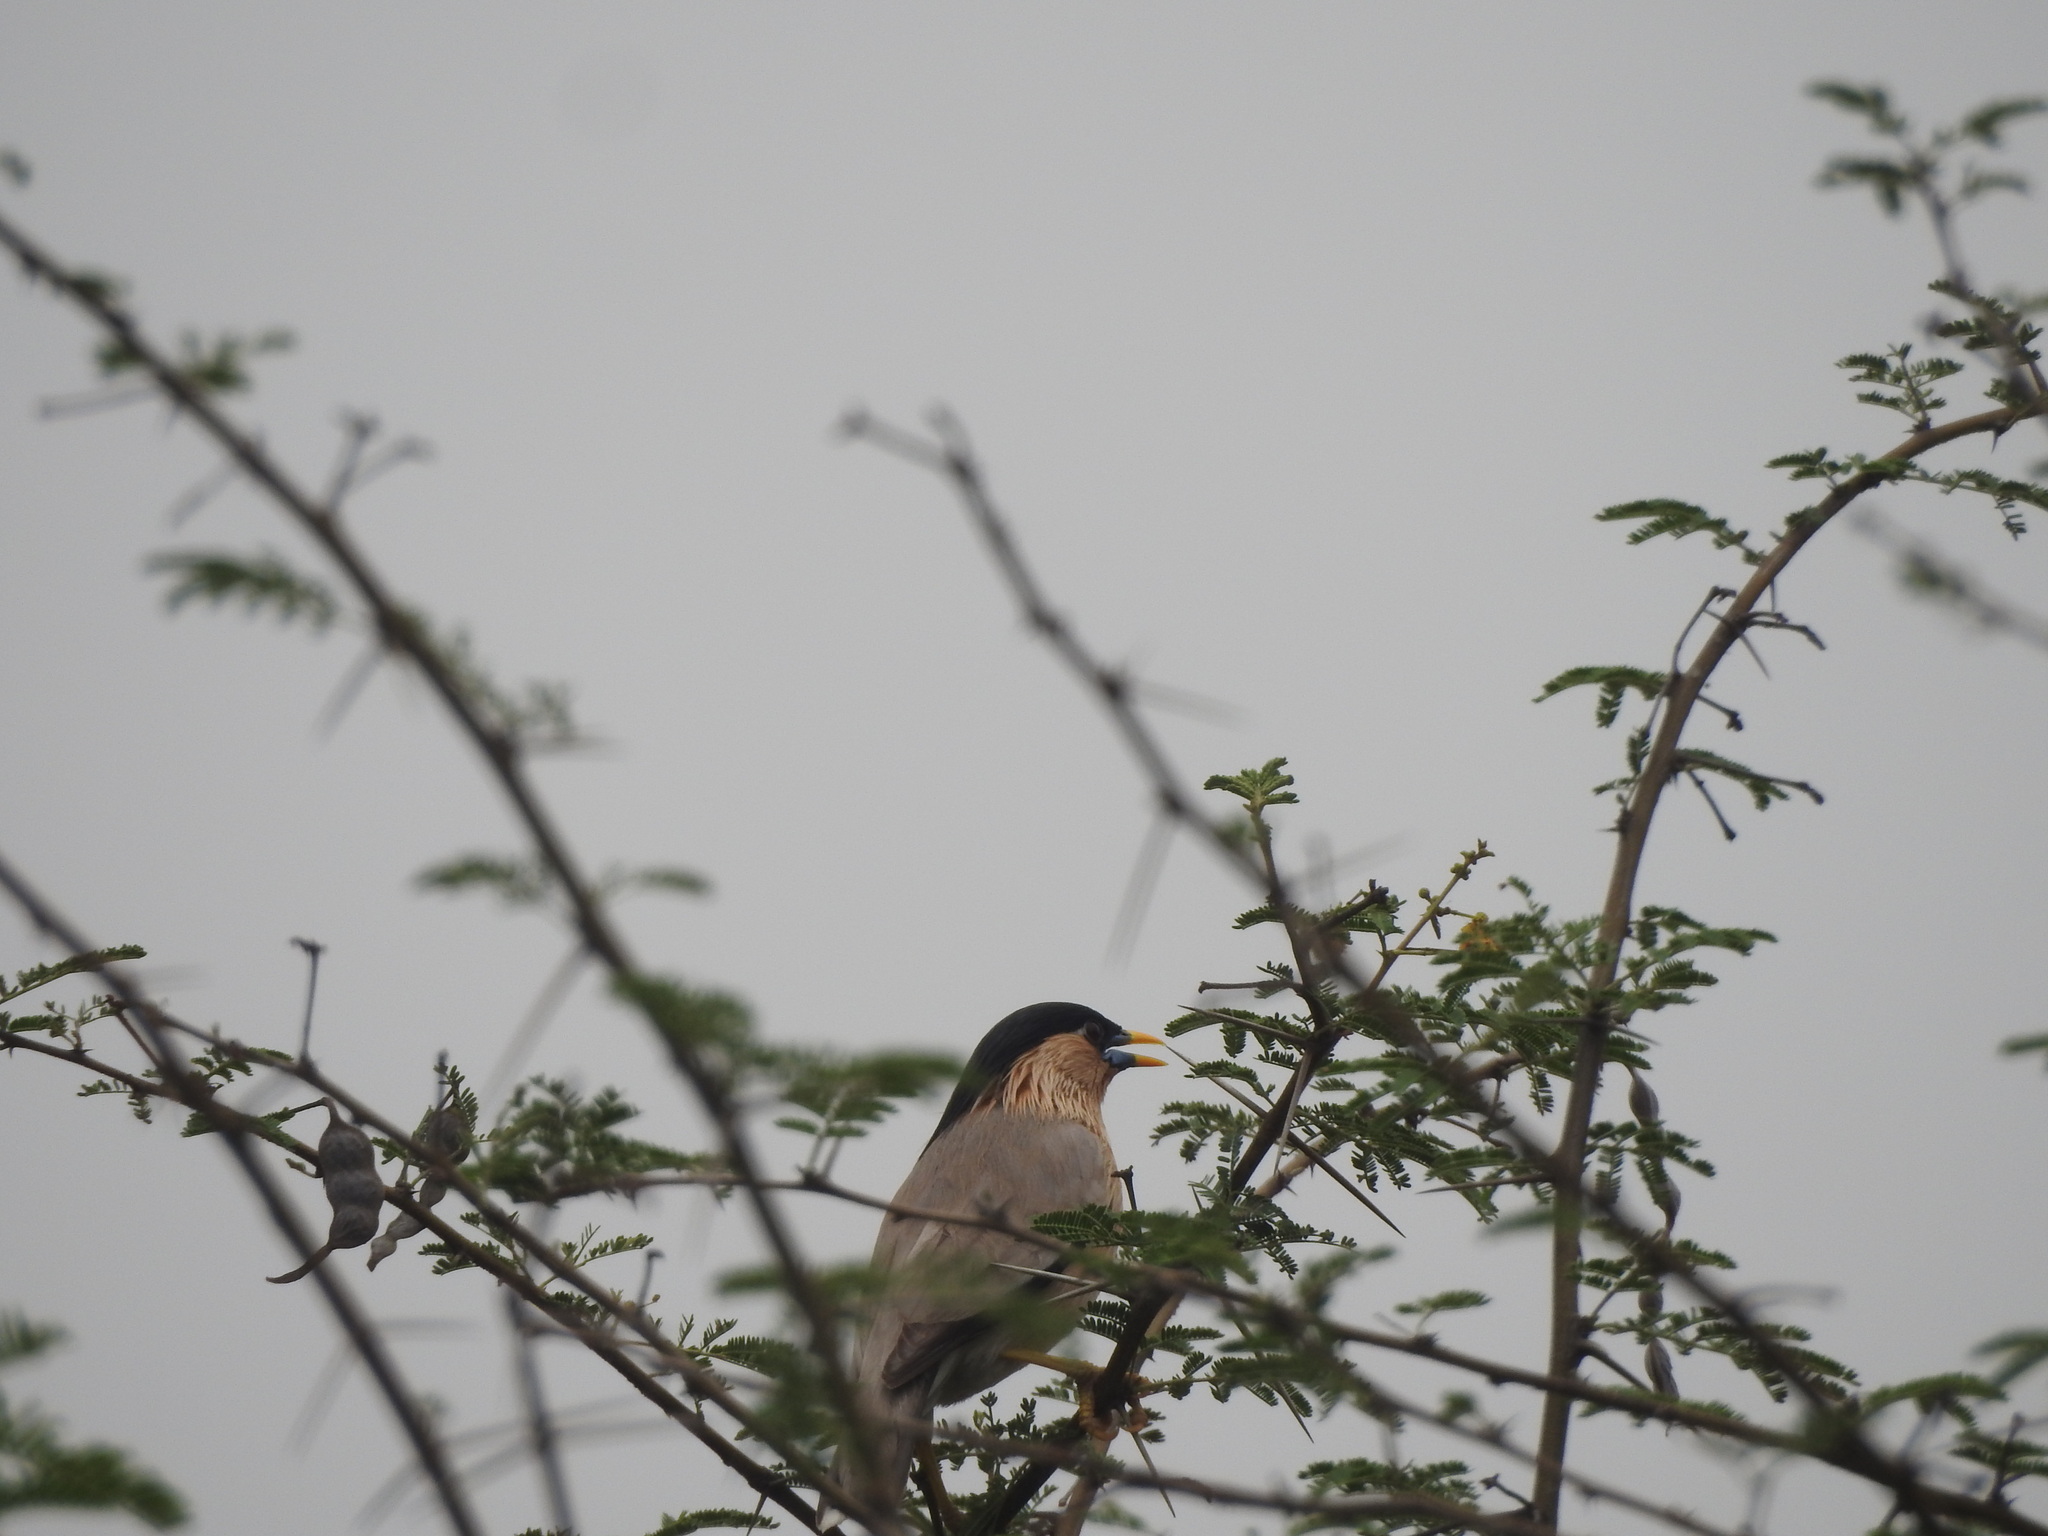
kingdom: Animalia
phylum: Chordata
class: Aves
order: Passeriformes
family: Sturnidae
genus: Sturnia
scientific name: Sturnia pagodarum
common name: Brahminy starling
